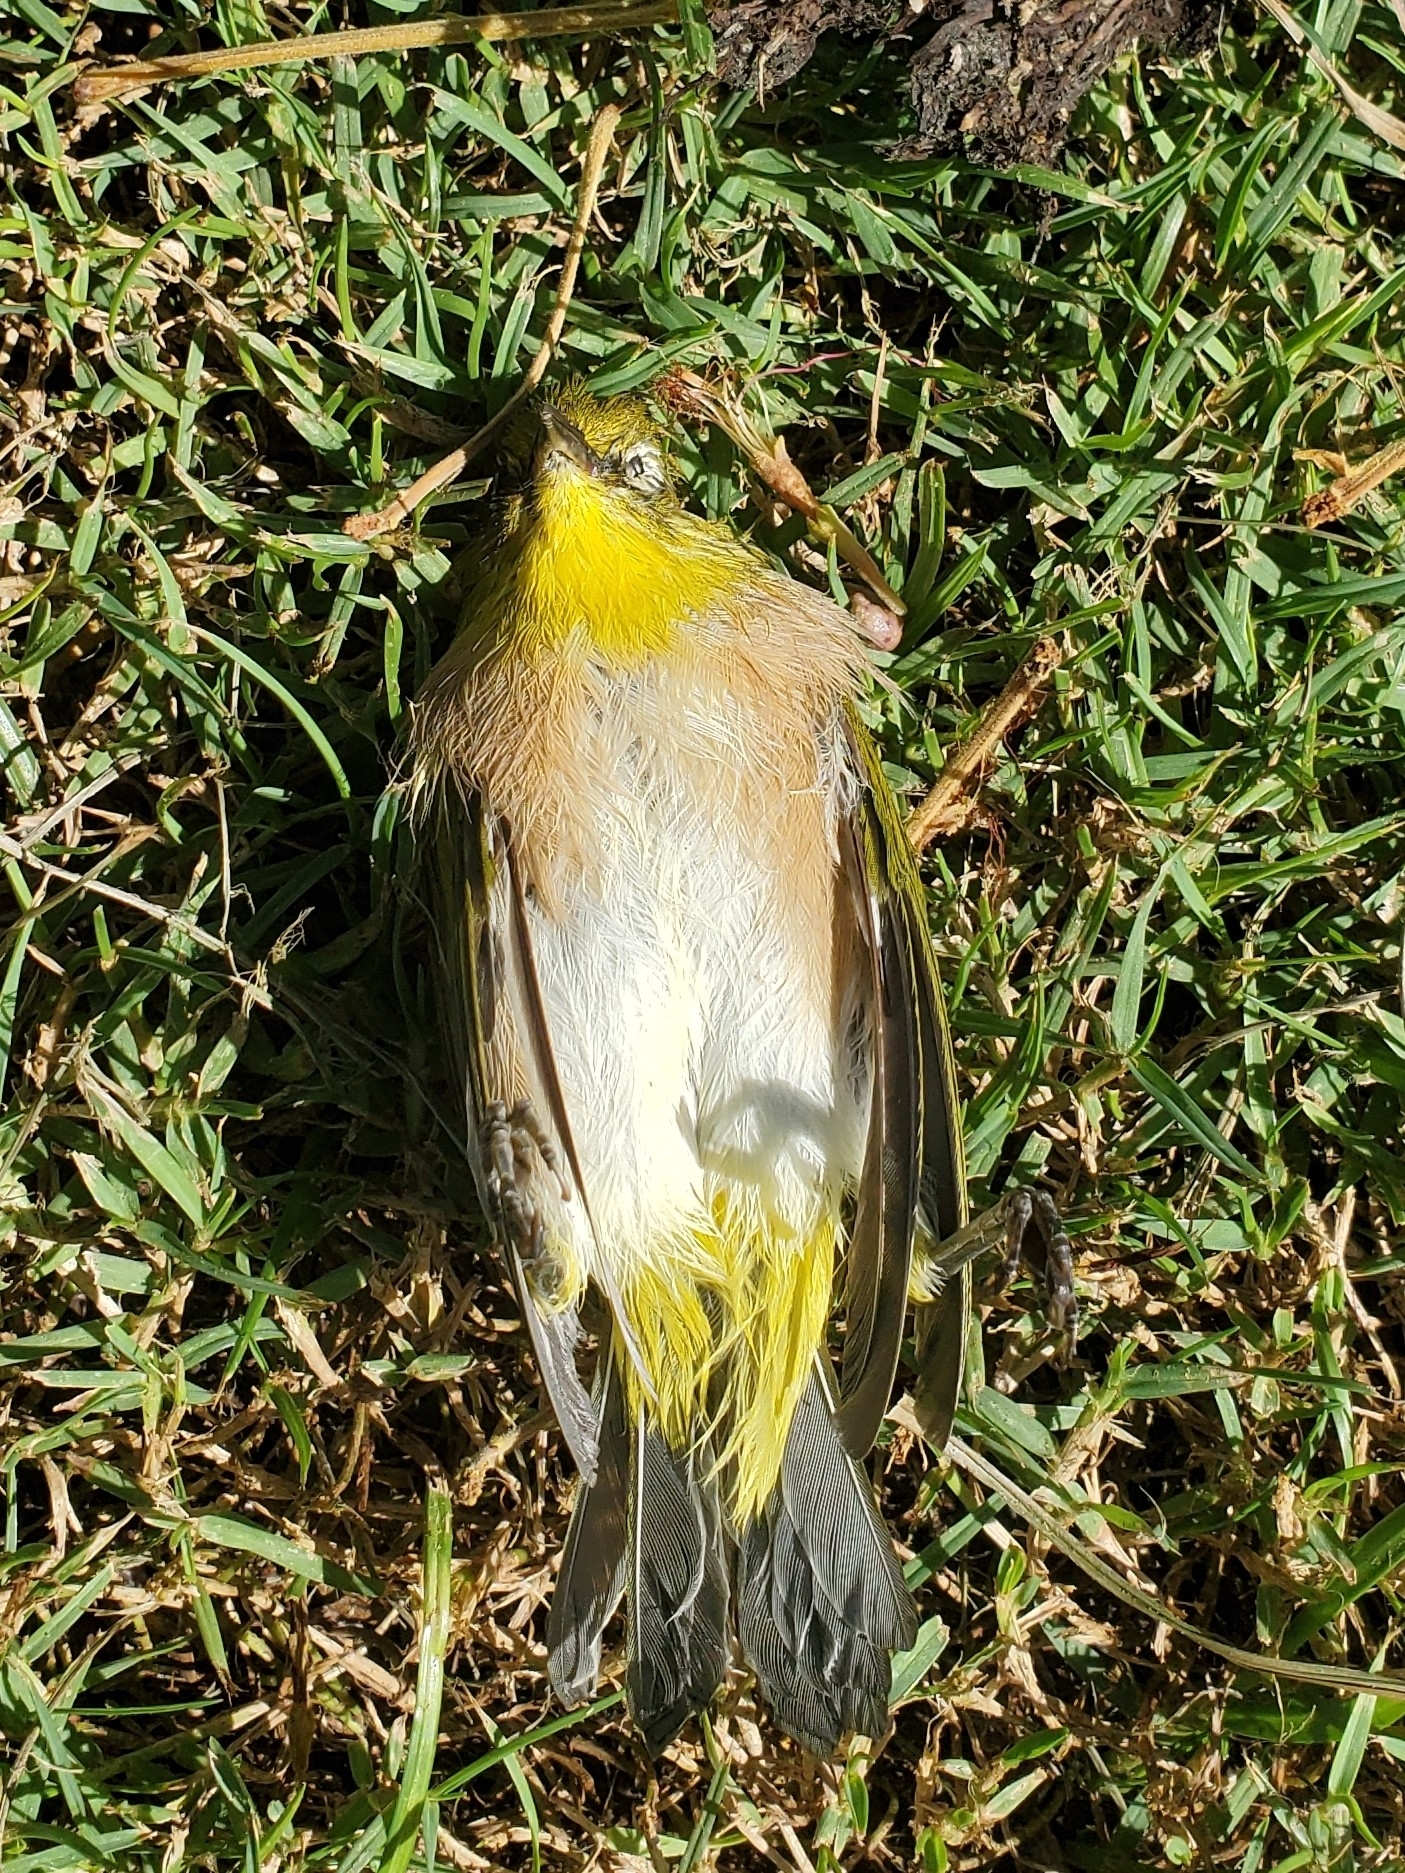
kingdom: Animalia
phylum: Chordata
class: Aves
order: Passeriformes
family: Zosteropidae
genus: Zosterops
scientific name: Zosterops japonicus
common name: Japanese white-eye
